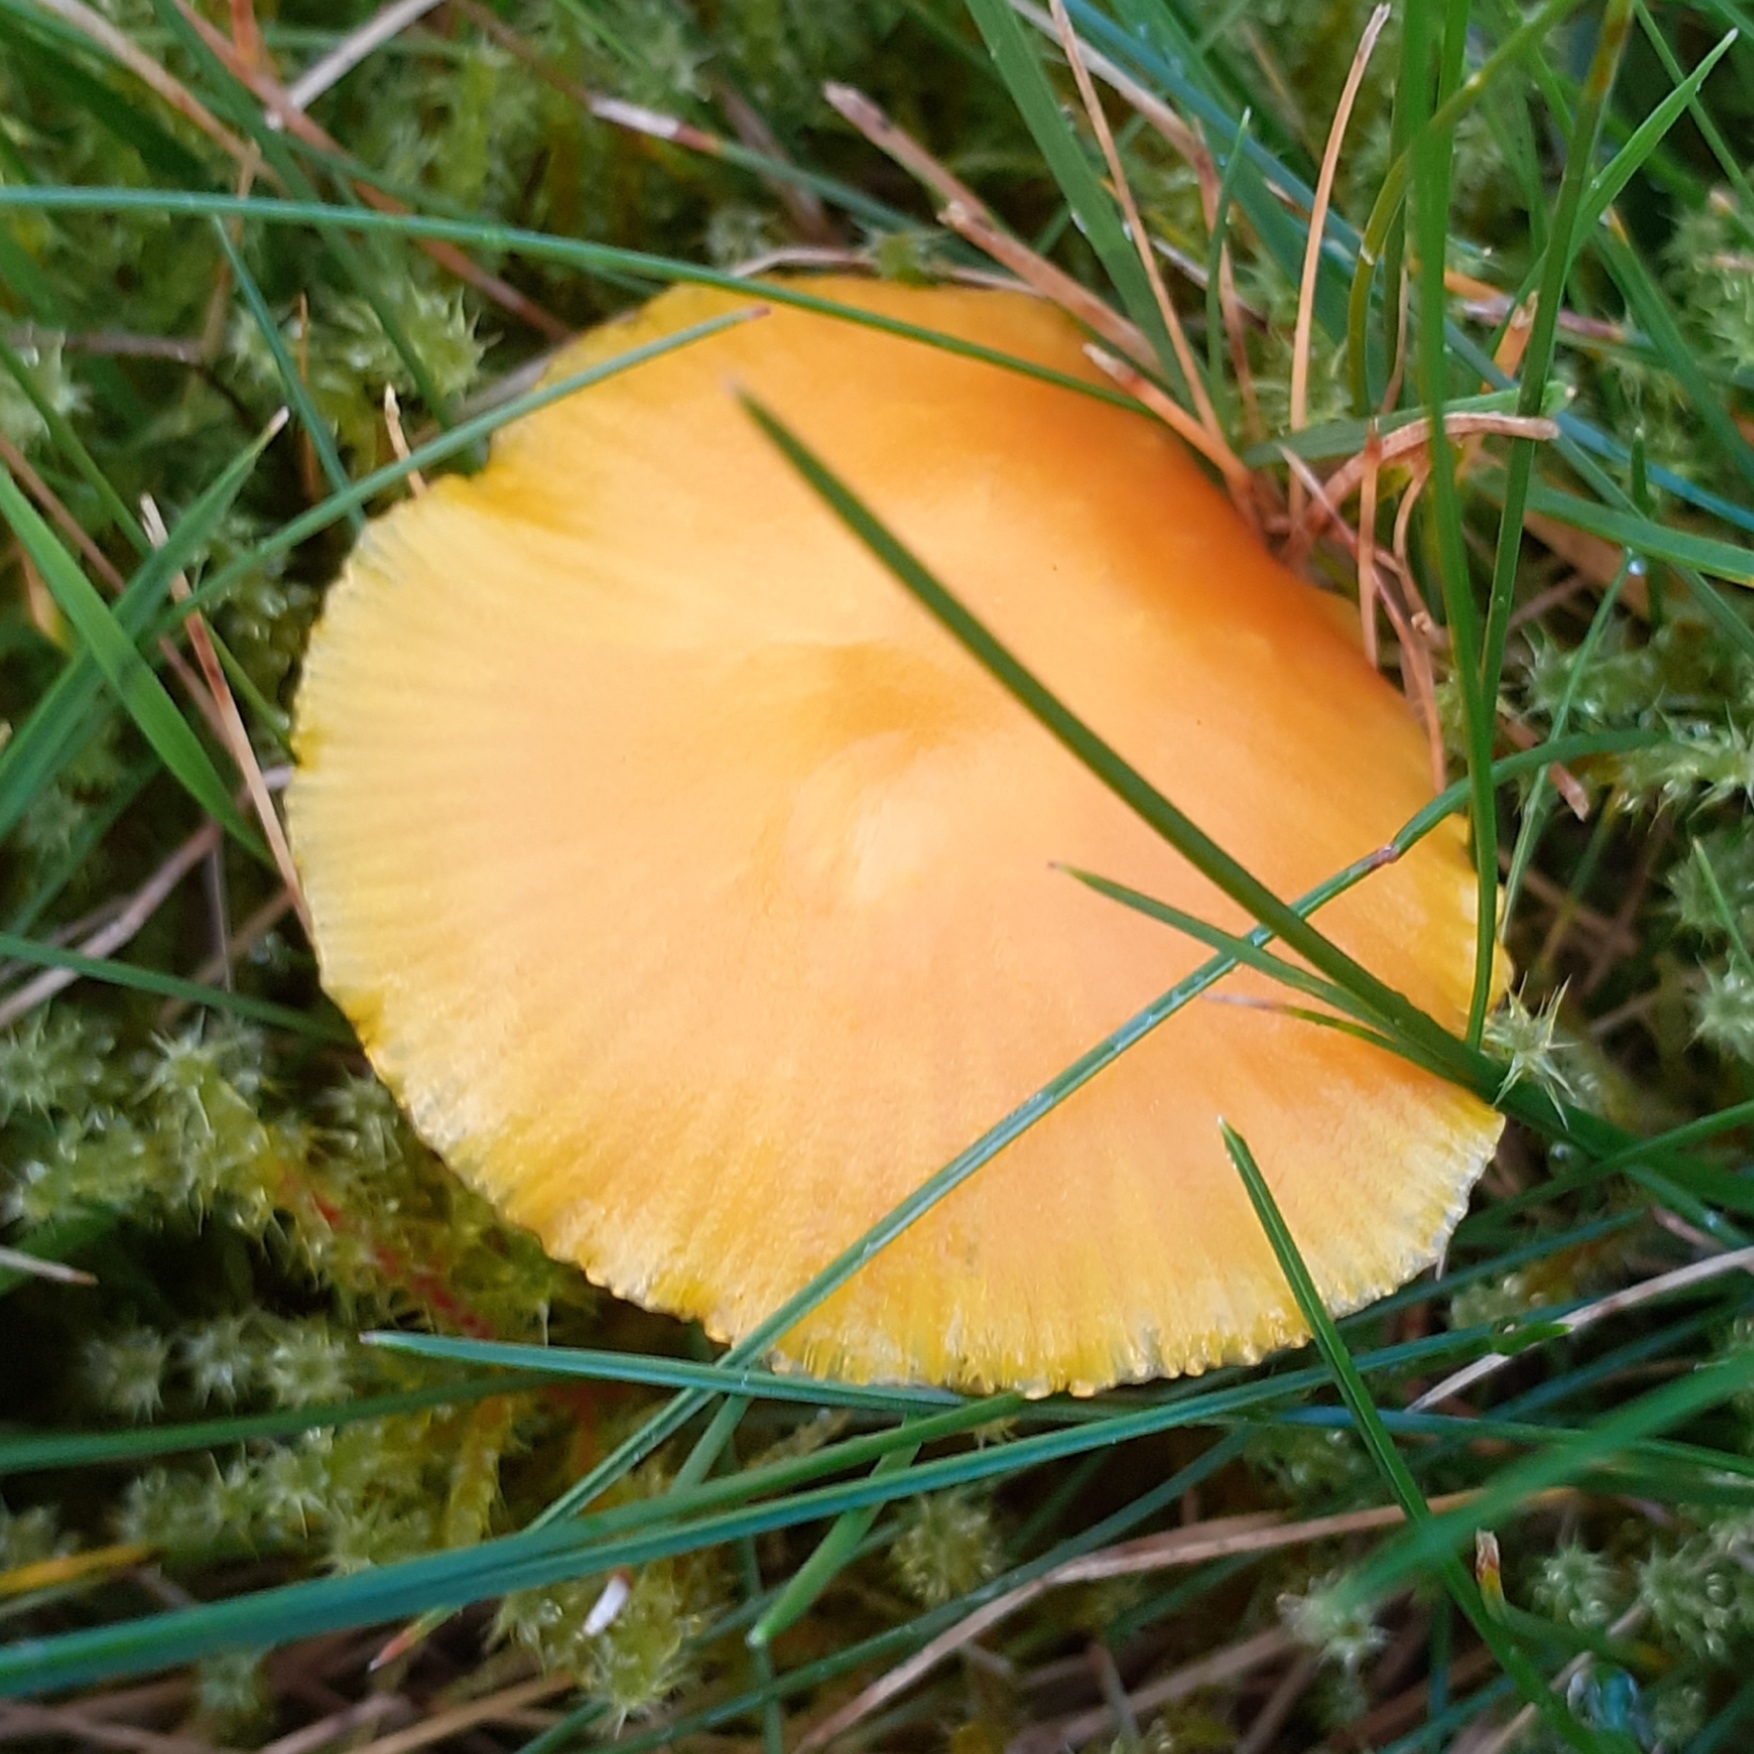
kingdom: Fungi
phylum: Basidiomycota
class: Agaricomycetes
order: Agaricales
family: Hygrophoraceae
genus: Hygrocybe
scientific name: Hygrocybe chlorophana
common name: Golden waxcap
